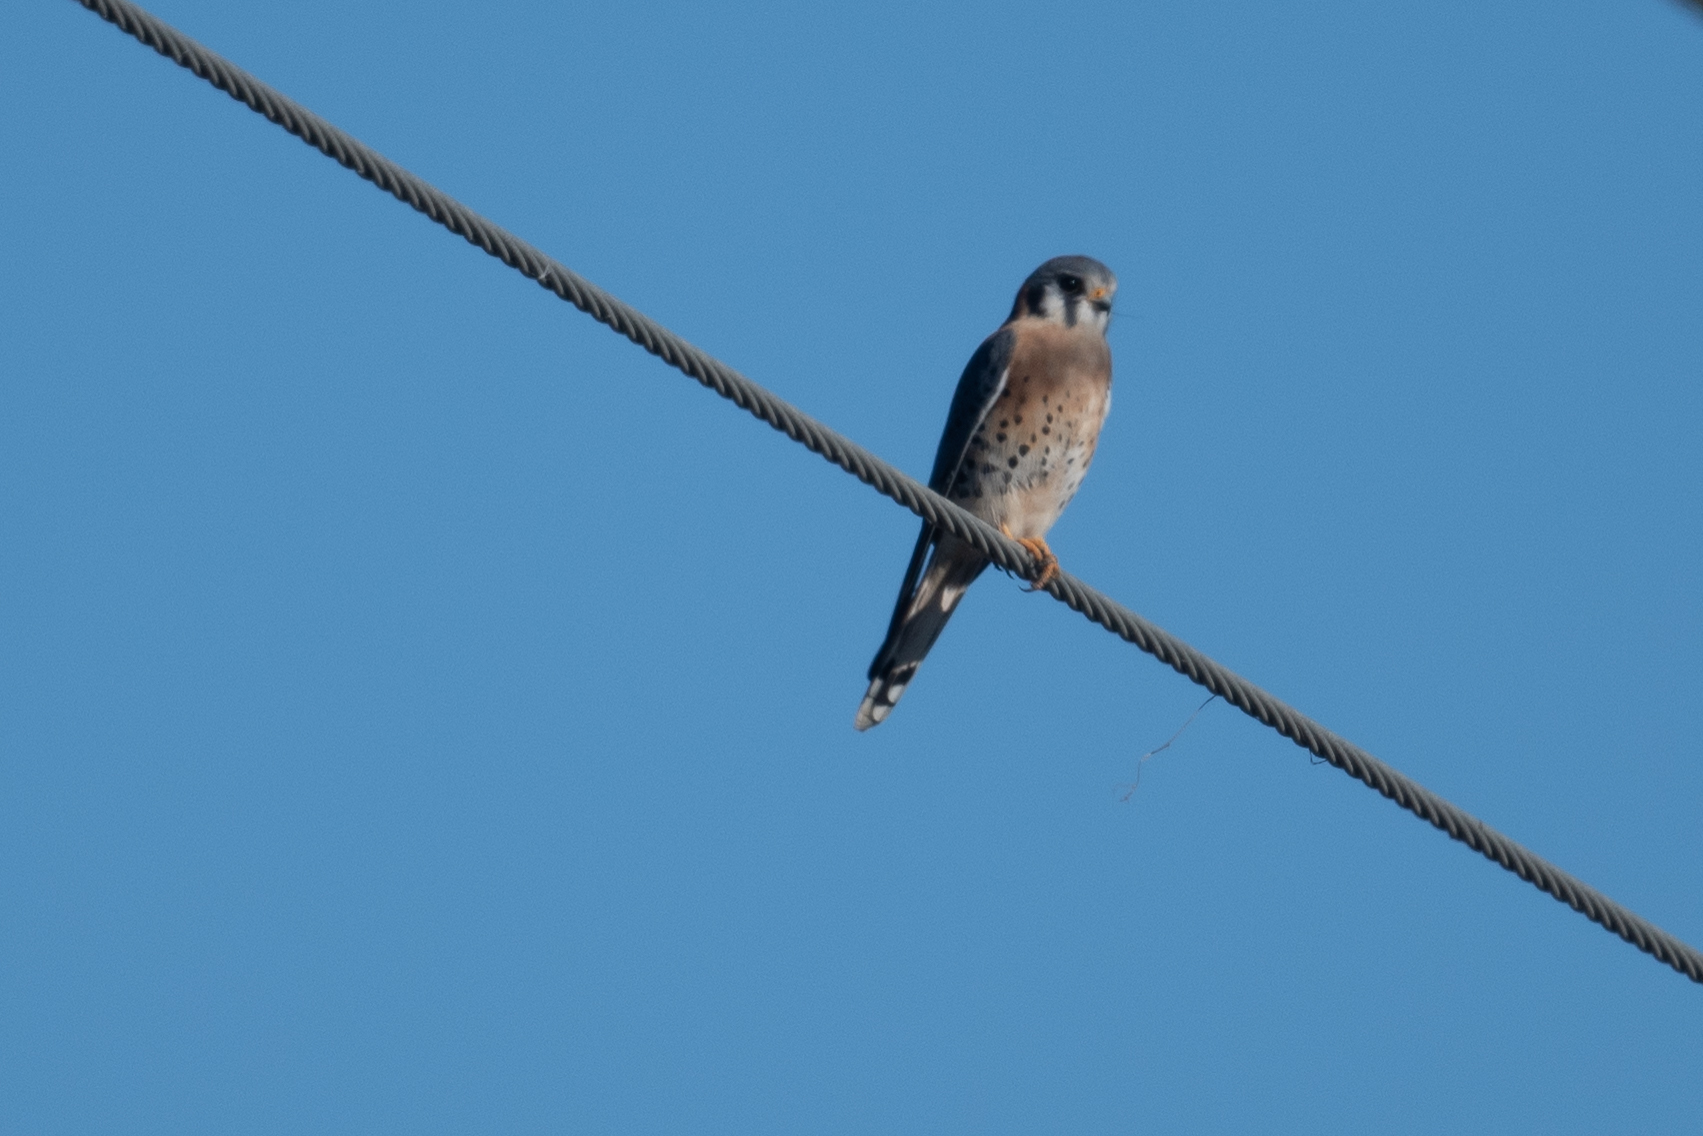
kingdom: Animalia
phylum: Chordata
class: Aves
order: Falconiformes
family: Falconidae
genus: Falco
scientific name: Falco sparverius
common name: American kestrel
